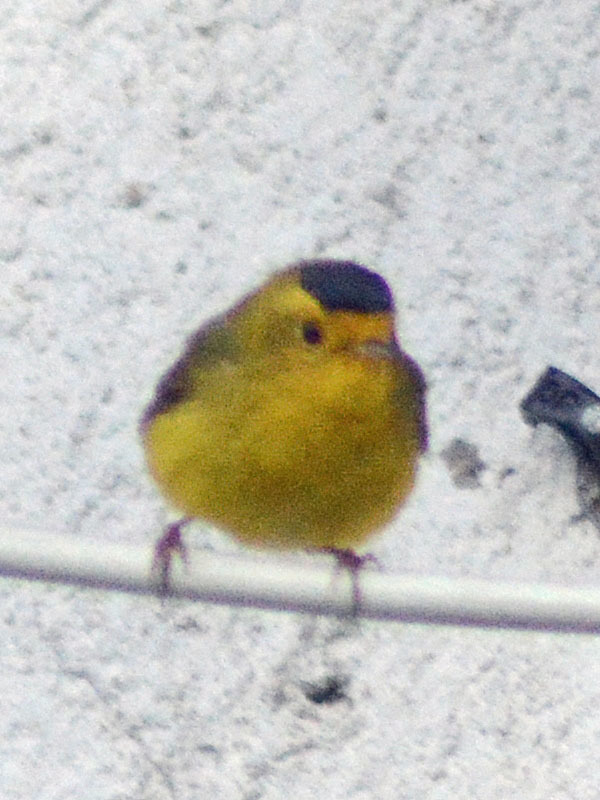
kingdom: Animalia
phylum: Chordata
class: Aves
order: Passeriformes
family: Parulidae
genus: Cardellina
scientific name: Cardellina pusilla
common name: Wilson's warbler
